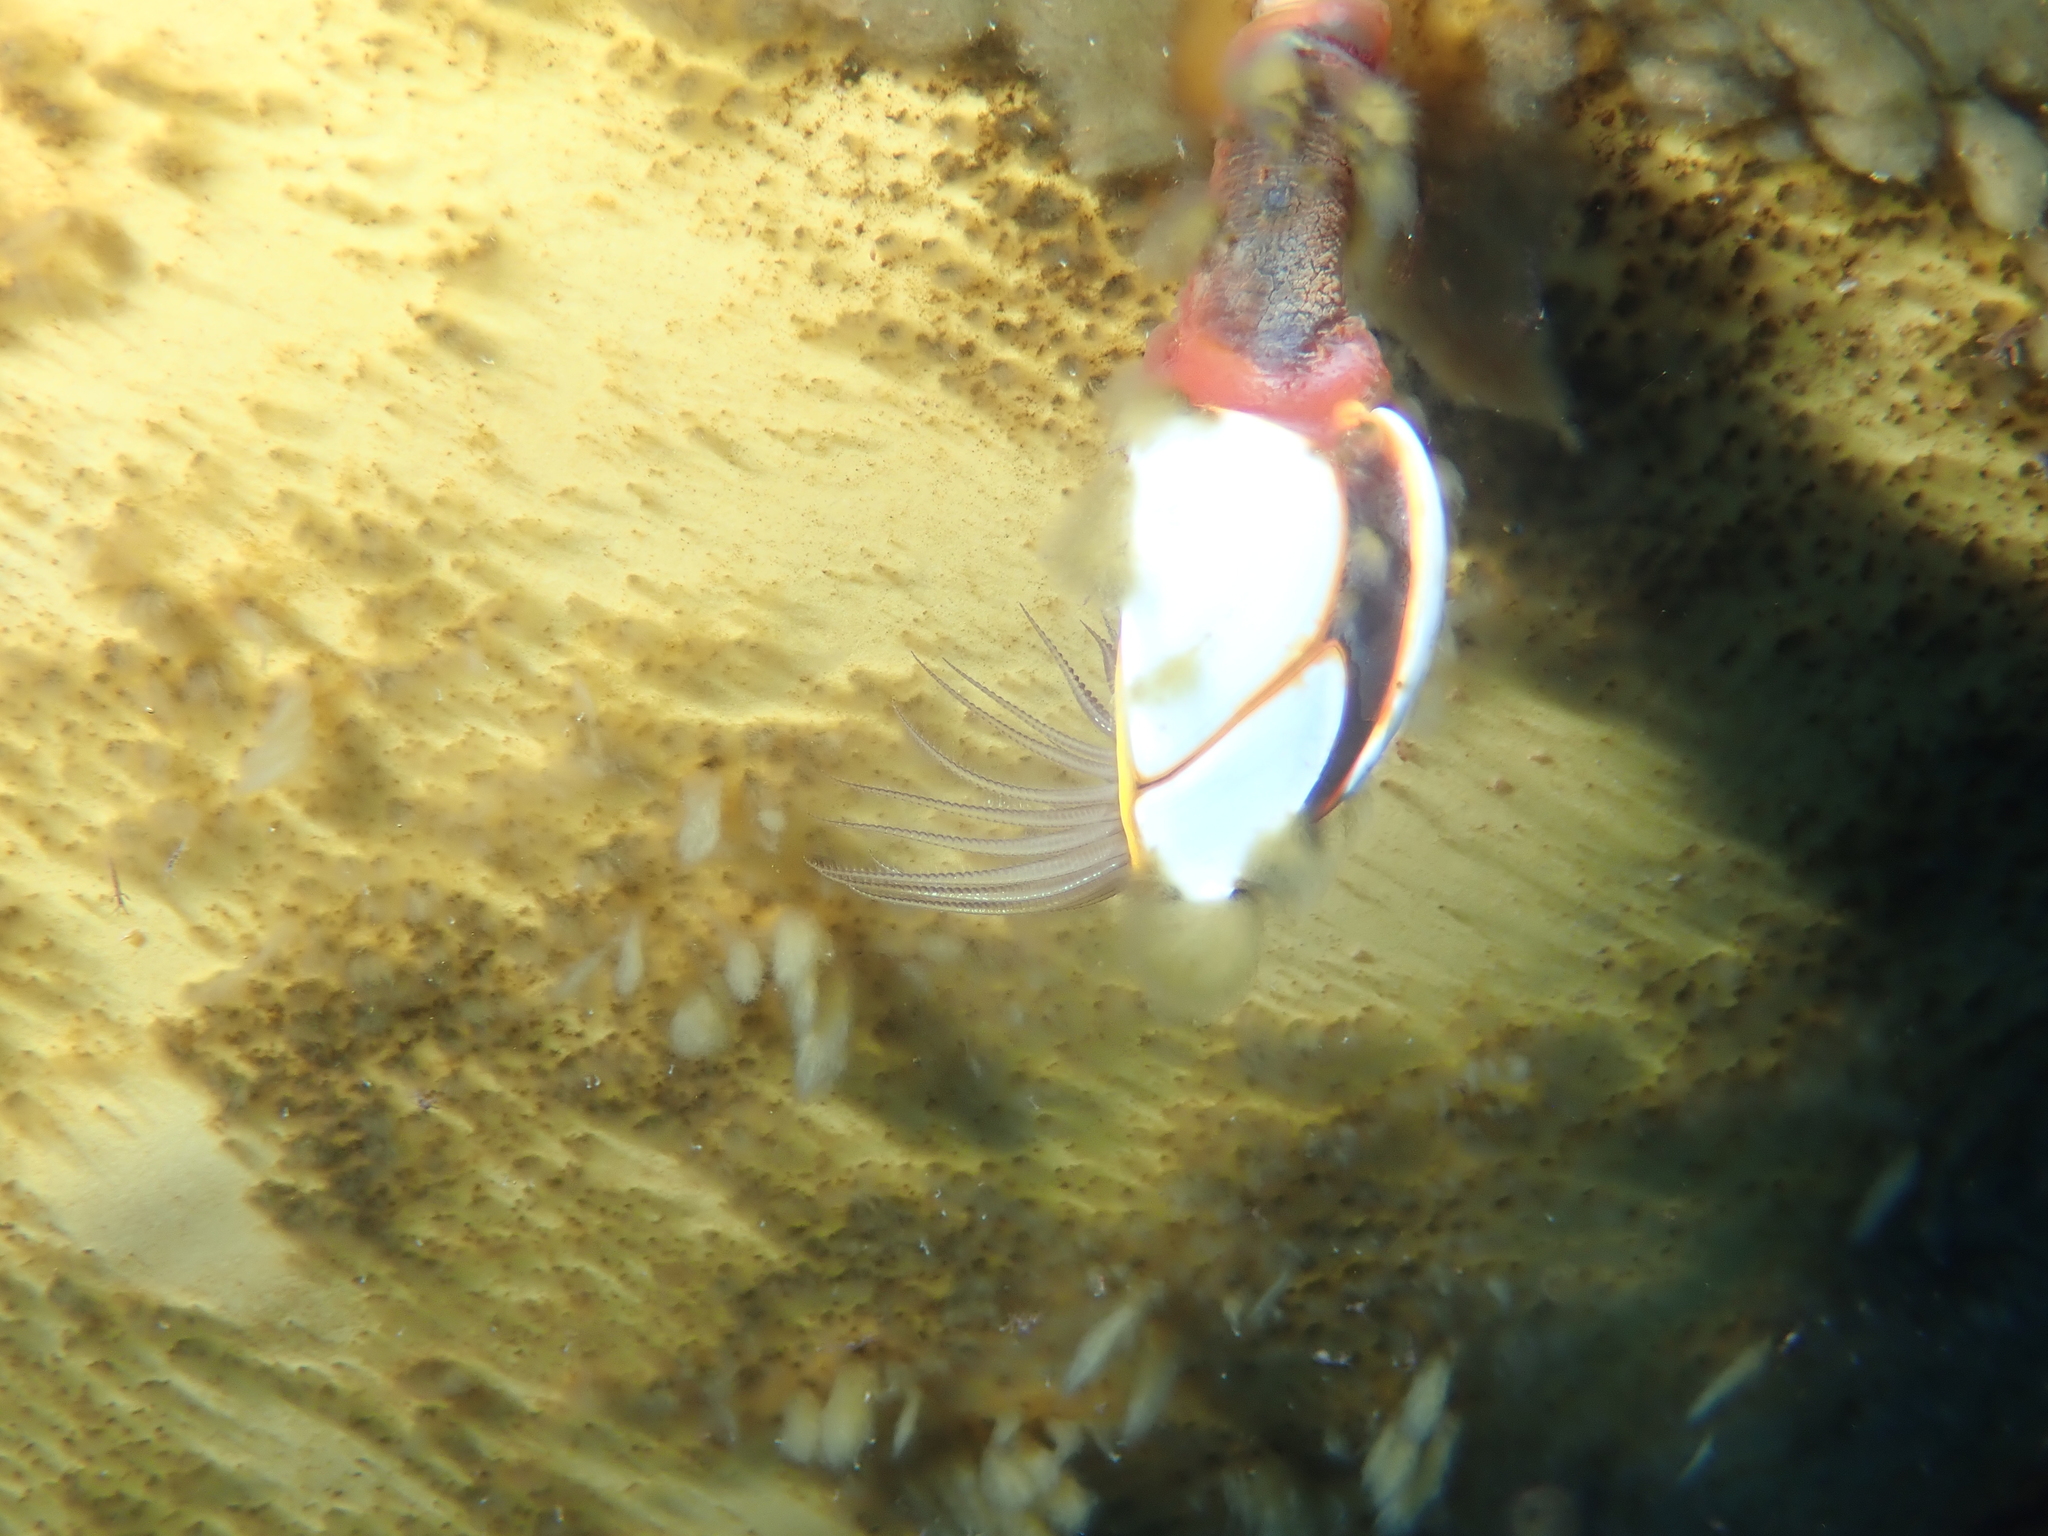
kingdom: Animalia
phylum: Arthropoda
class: Maxillopoda
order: Pedunculata
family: Lepadidae
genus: Lepas
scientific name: Lepas hillii
